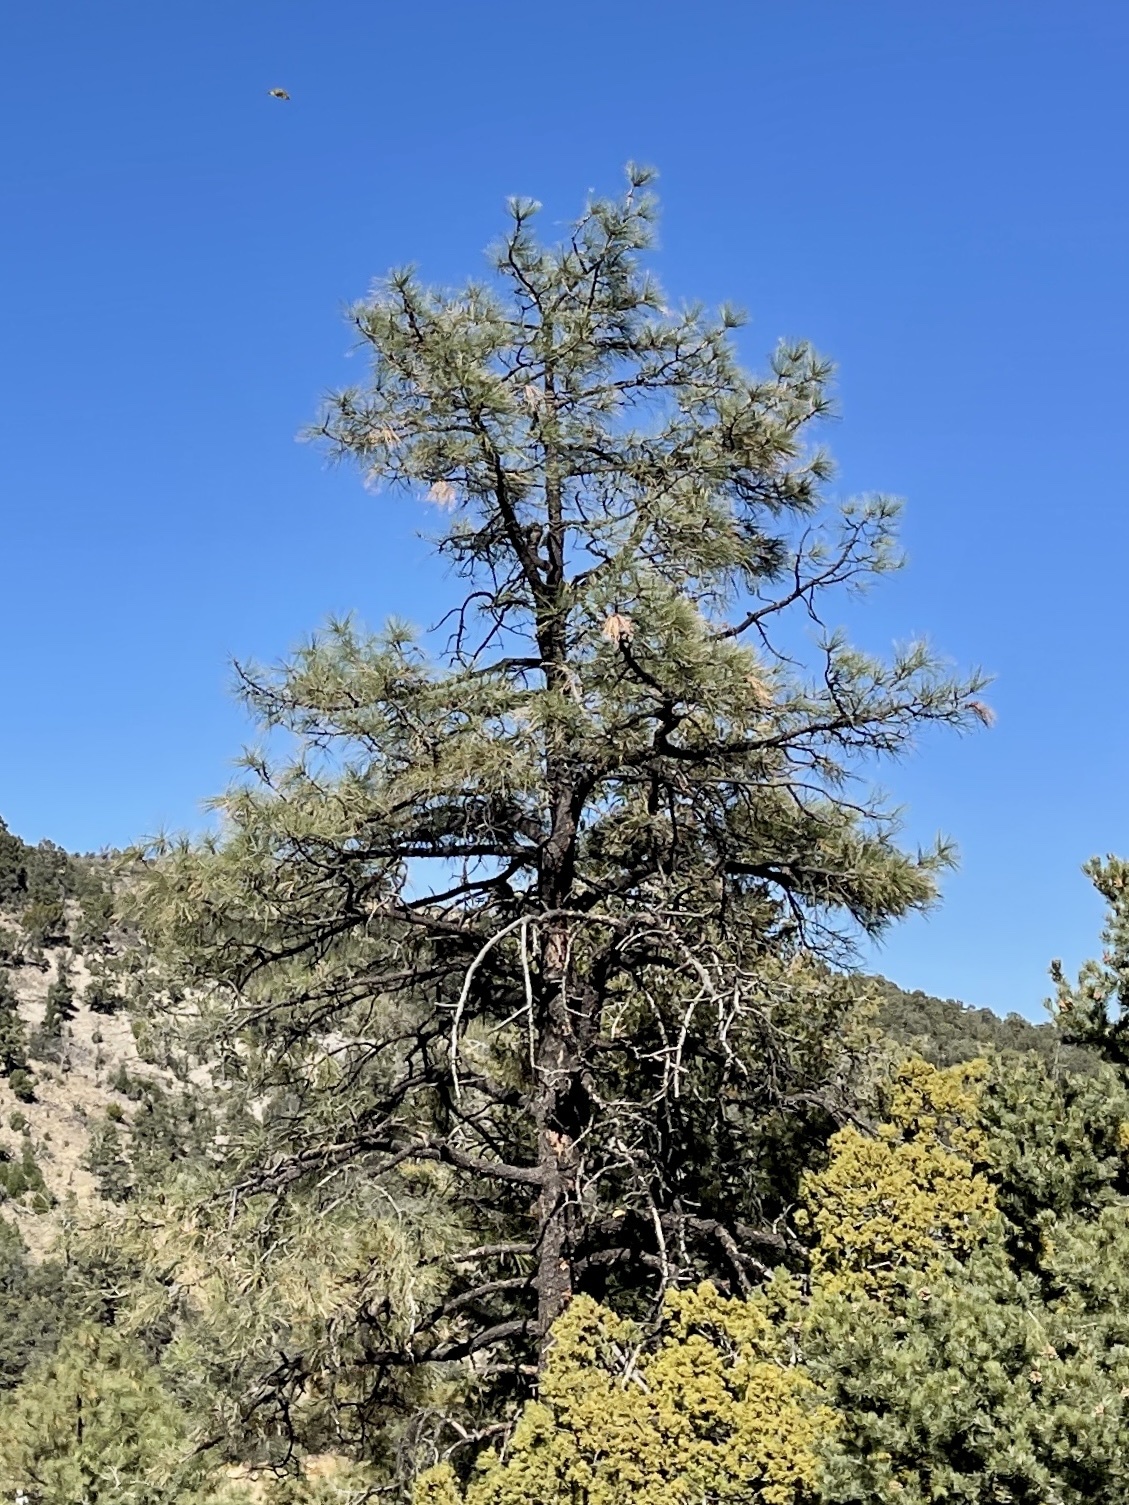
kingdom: Plantae
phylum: Tracheophyta
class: Pinopsida
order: Pinales
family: Pinaceae
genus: Pinus
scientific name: Pinus ponderosa
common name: Western yellow-pine
